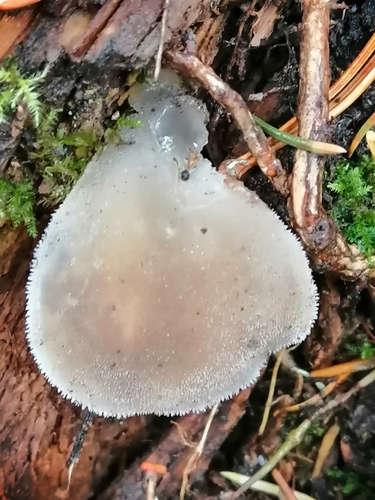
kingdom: Fungi
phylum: Basidiomycota
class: Agaricomycetes
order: Auriculariales
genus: Pseudohydnum
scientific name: Pseudohydnum gelatinosum
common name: Jelly tongue
